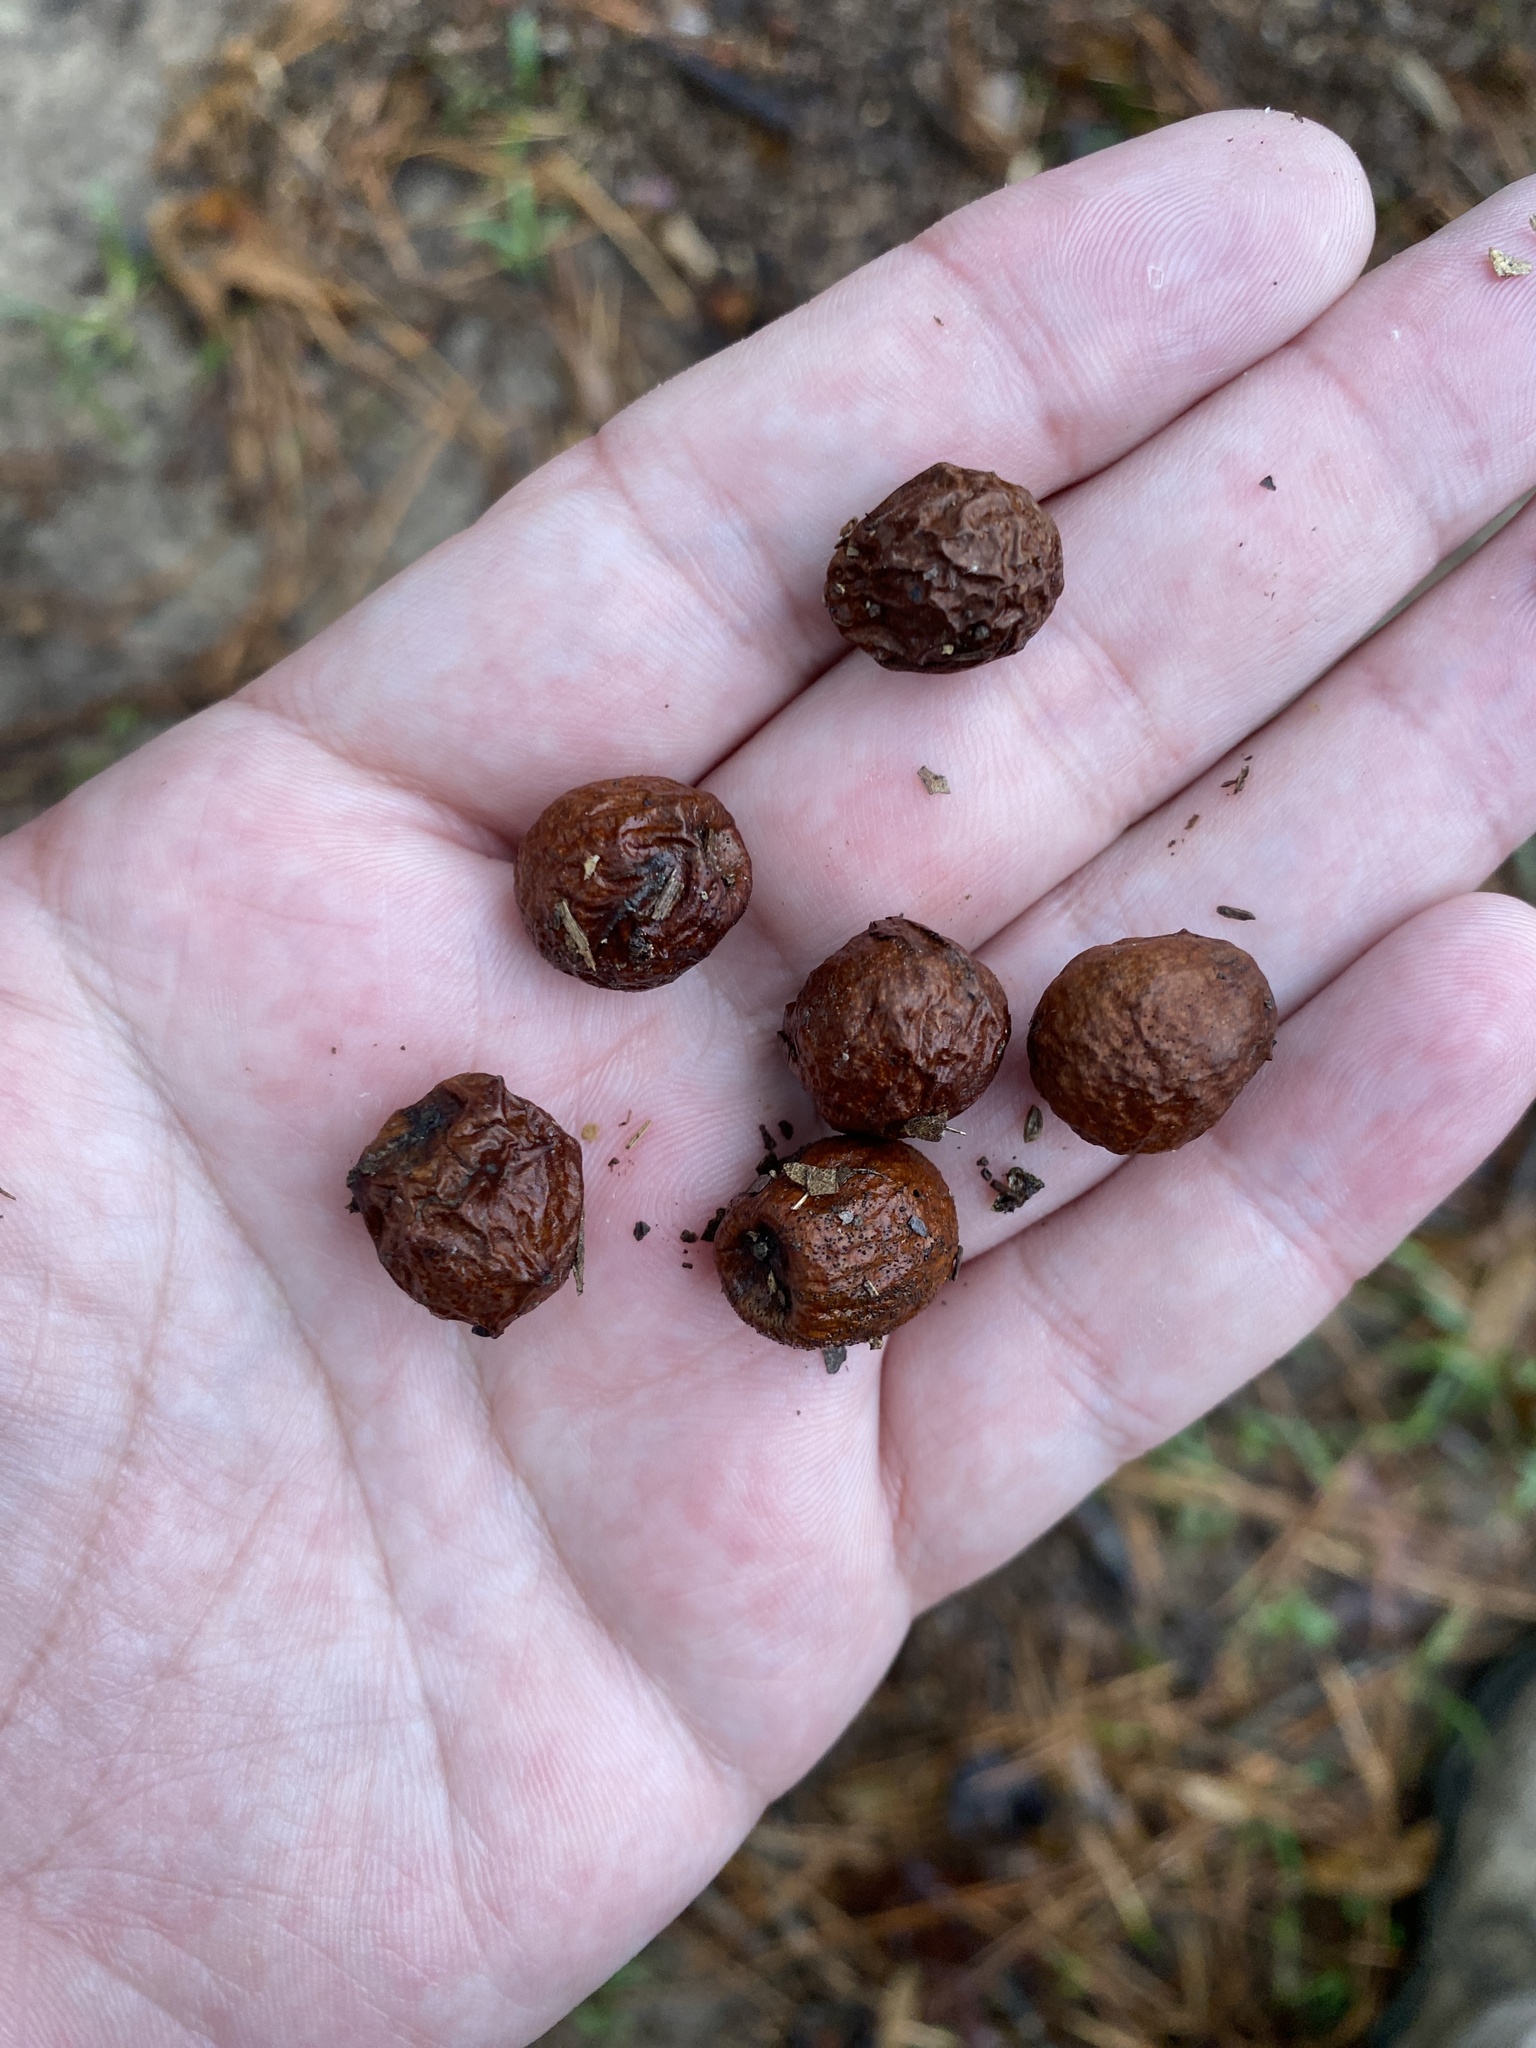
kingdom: Animalia
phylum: Arthropoda
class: Insecta
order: Hymenoptera
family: Cynipidae
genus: Amphibolips
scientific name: Amphibolips
